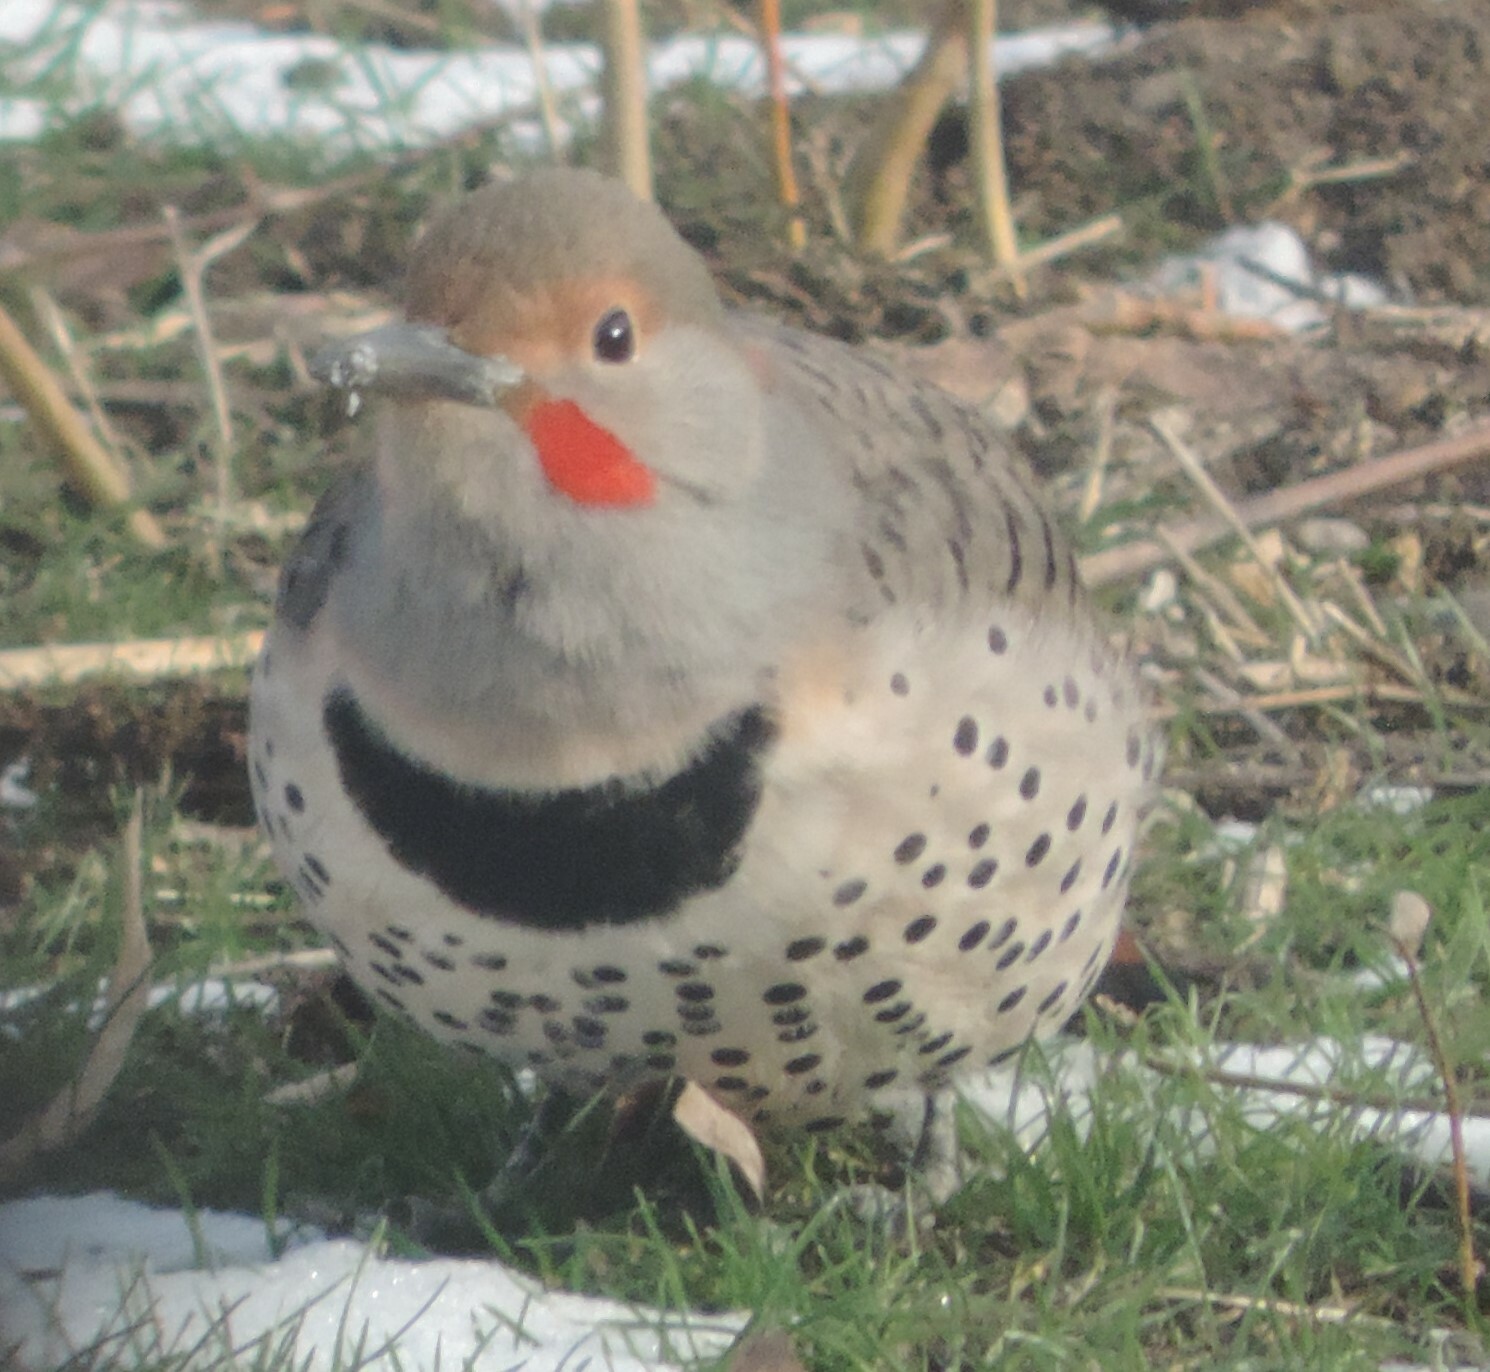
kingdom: Animalia
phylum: Chordata
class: Aves
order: Piciformes
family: Picidae
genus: Colaptes
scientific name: Colaptes auratus
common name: Northern flicker
